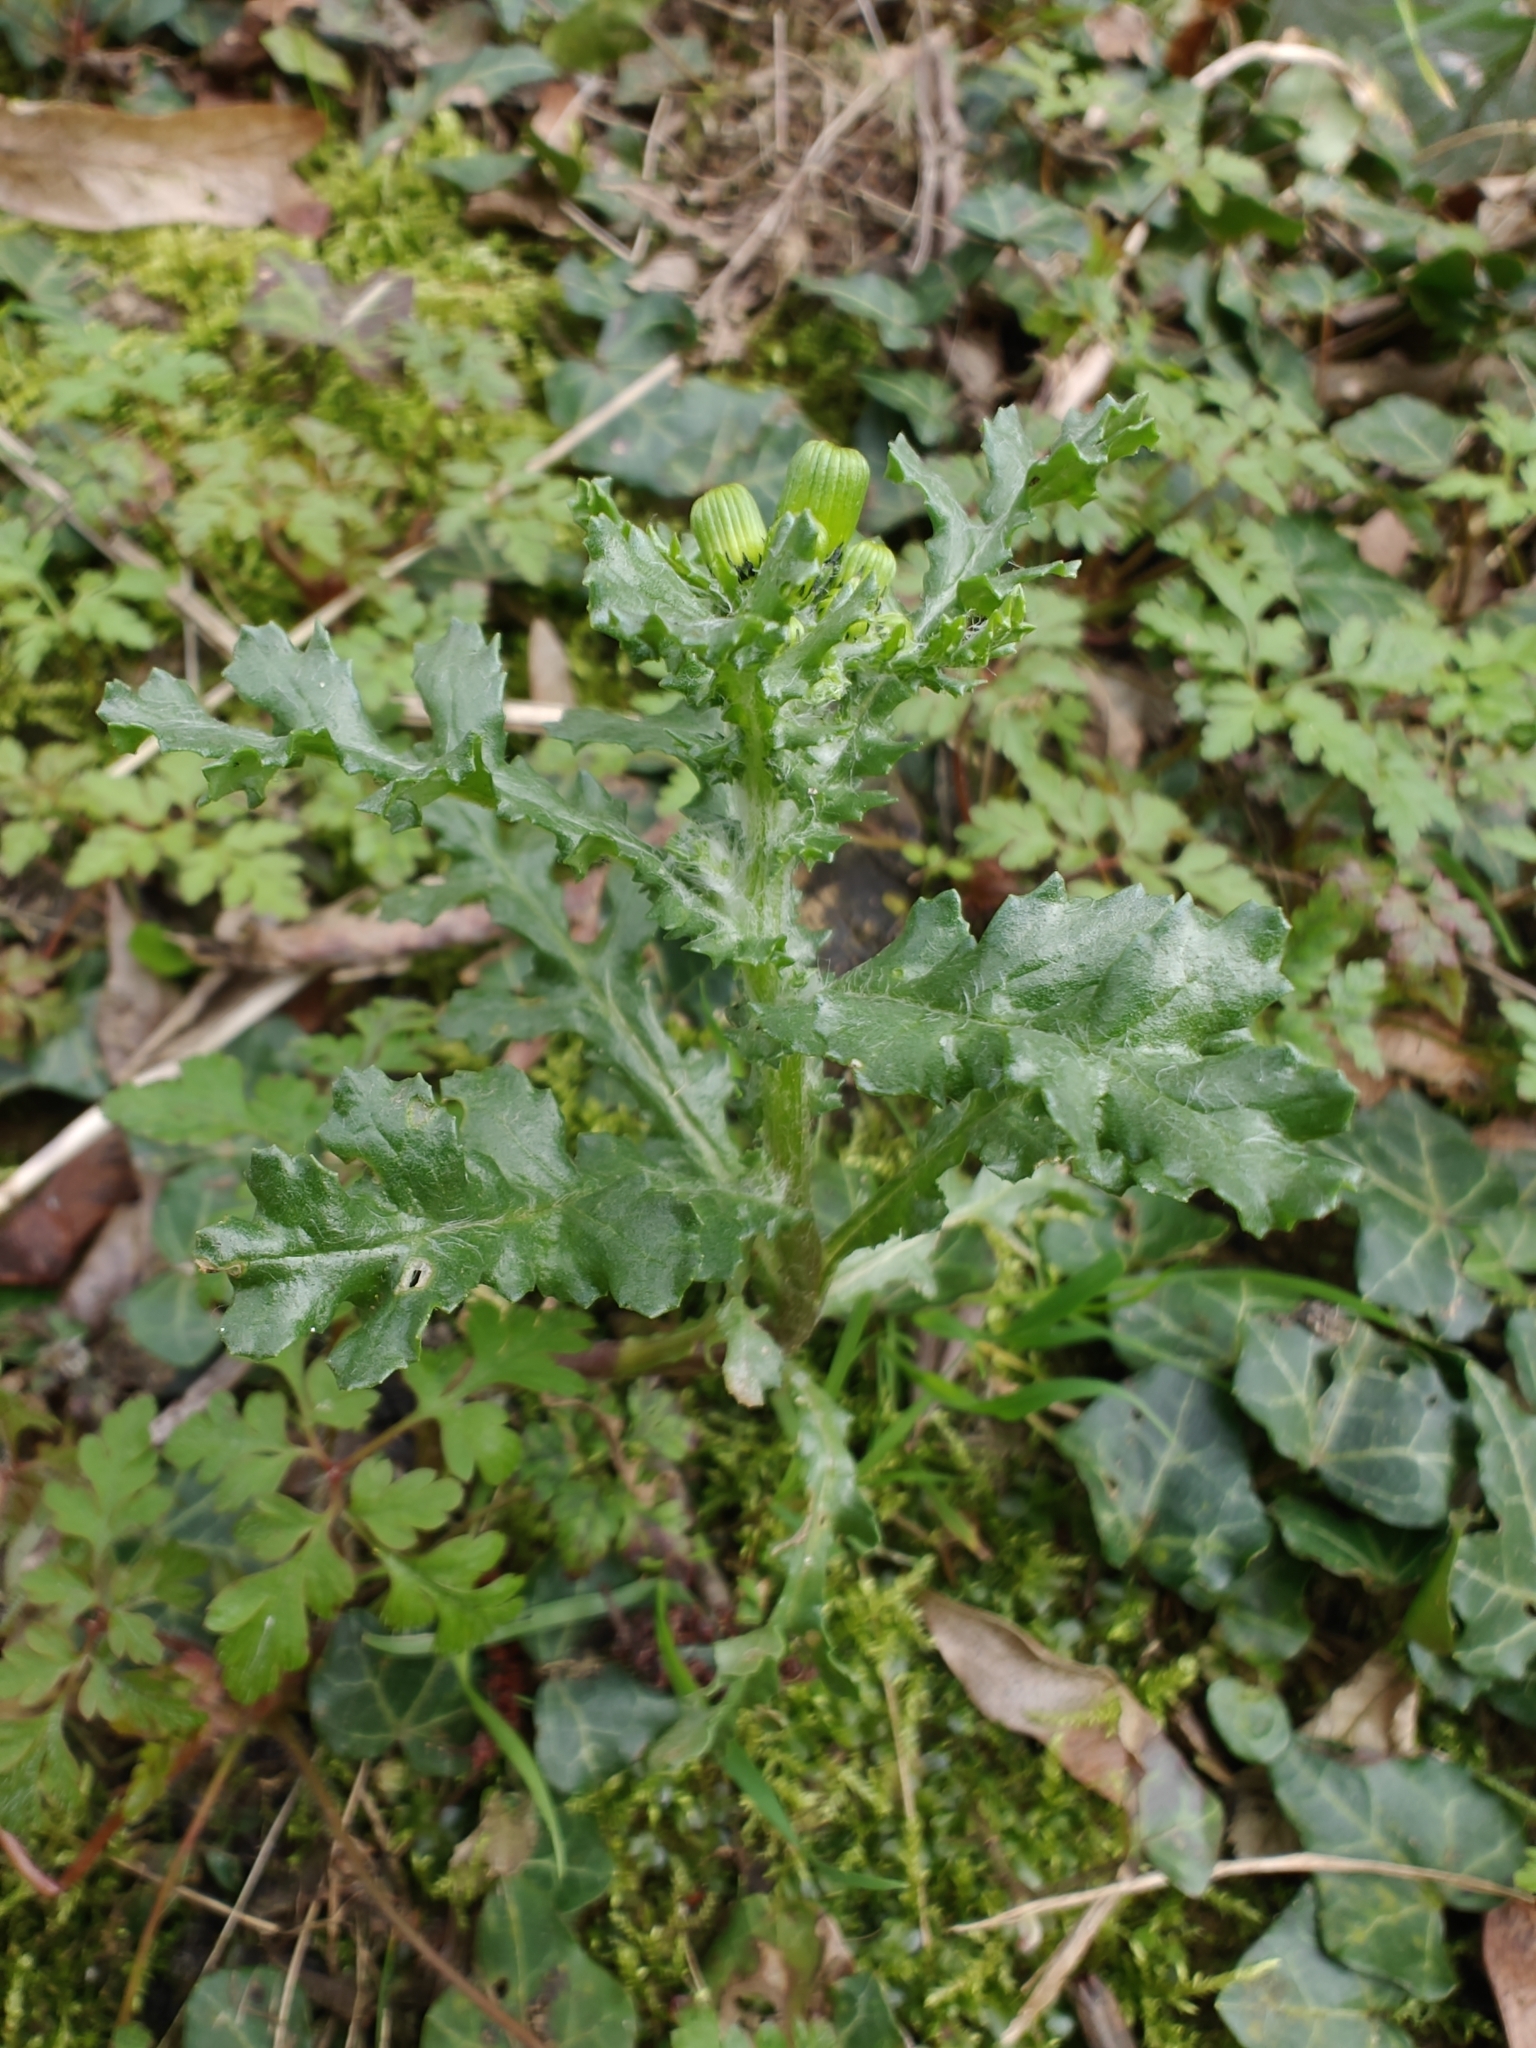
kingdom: Plantae
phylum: Tracheophyta
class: Magnoliopsida
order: Asterales
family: Asteraceae
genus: Senecio
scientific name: Senecio vulgaris
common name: Old-man-in-the-spring
